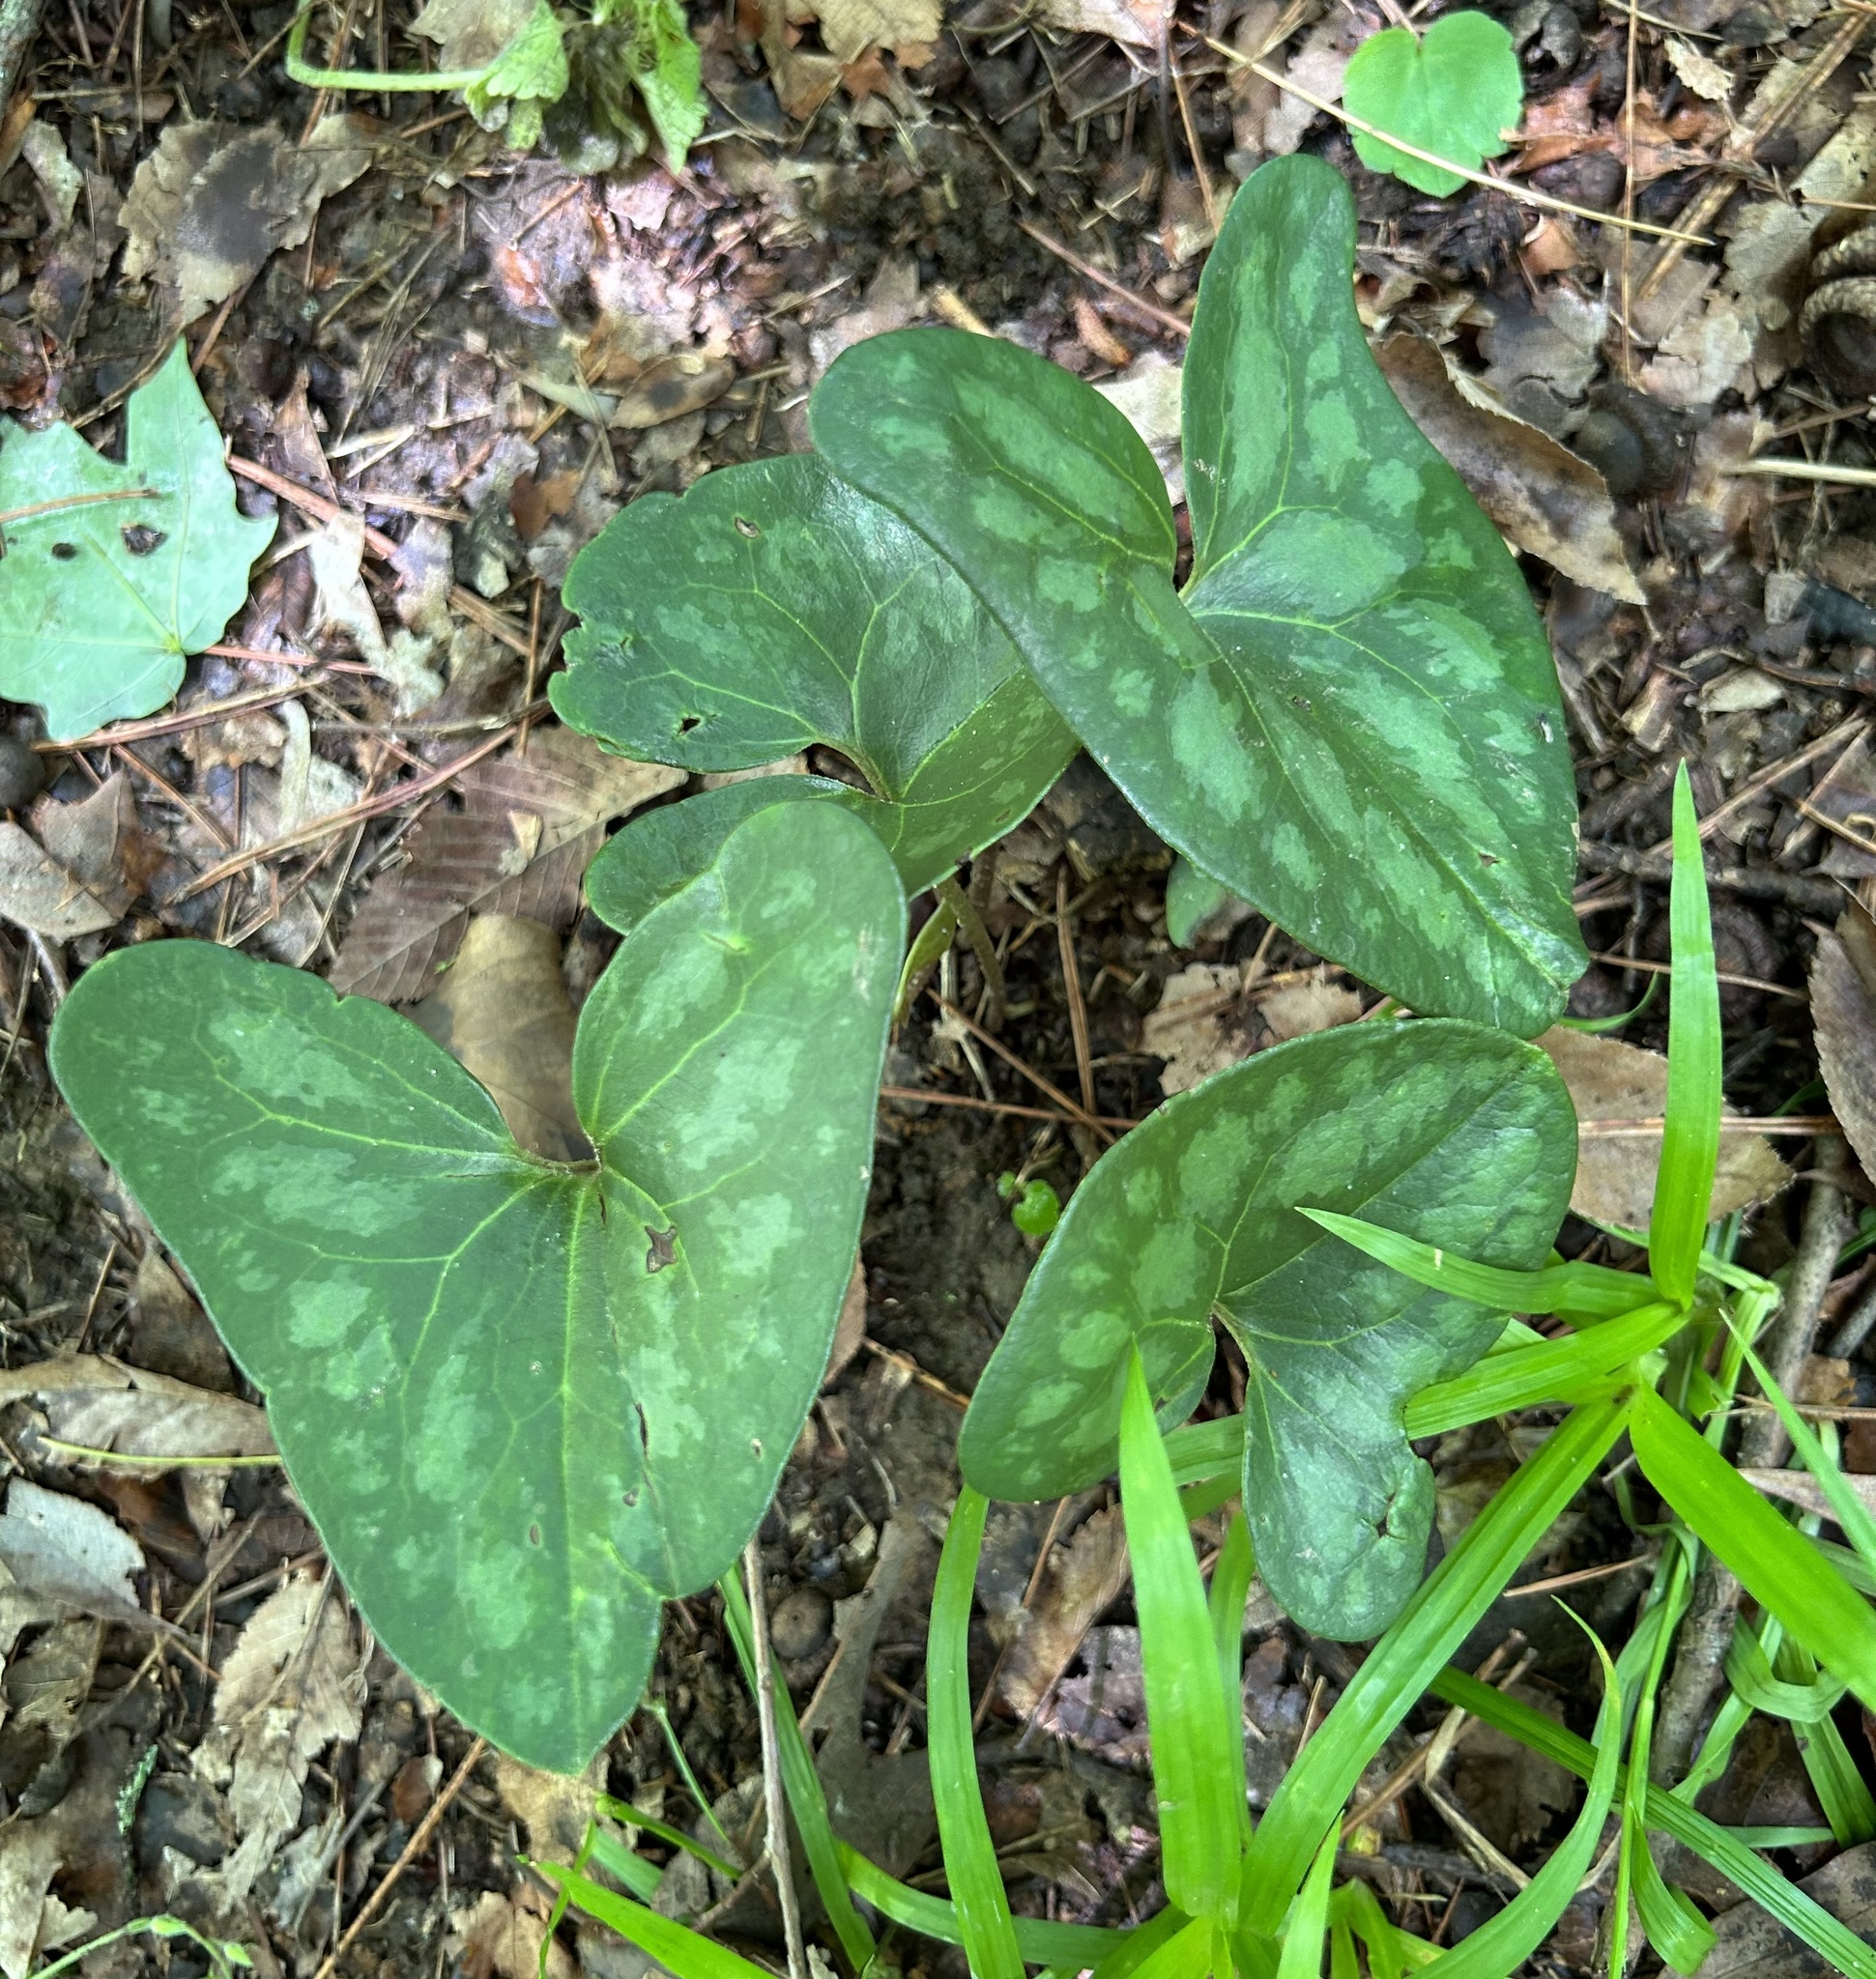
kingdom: Plantae
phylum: Tracheophyta
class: Magnoliopsida
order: Piperales
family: Aristolochiaceae
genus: Hexastylis
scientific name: Hexastylis arifolia
